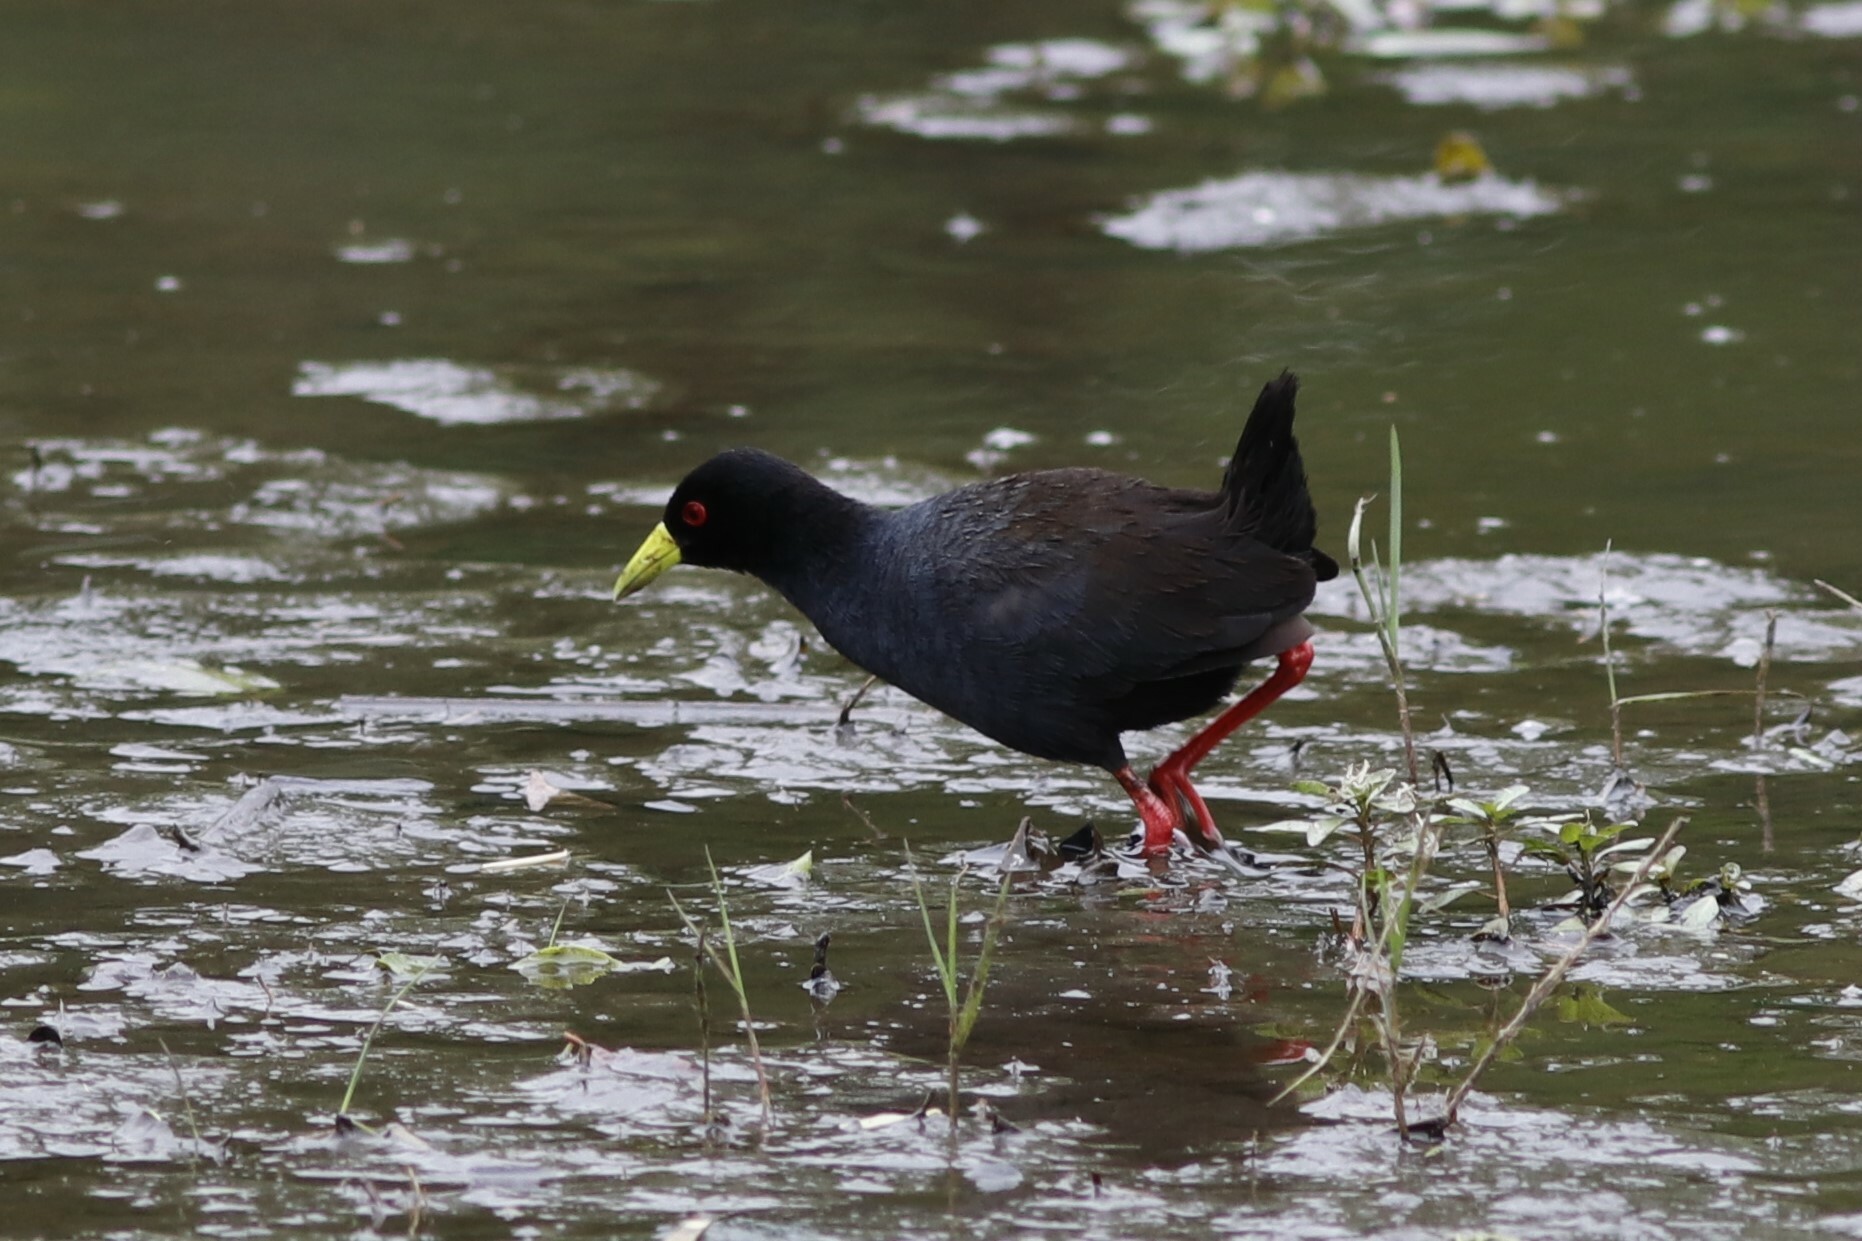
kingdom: Animalia
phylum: Chordata
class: Aves
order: Gruiformes
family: Rallidae
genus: Amaurornis
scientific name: Amaurornis flavirostra
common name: Black crake
